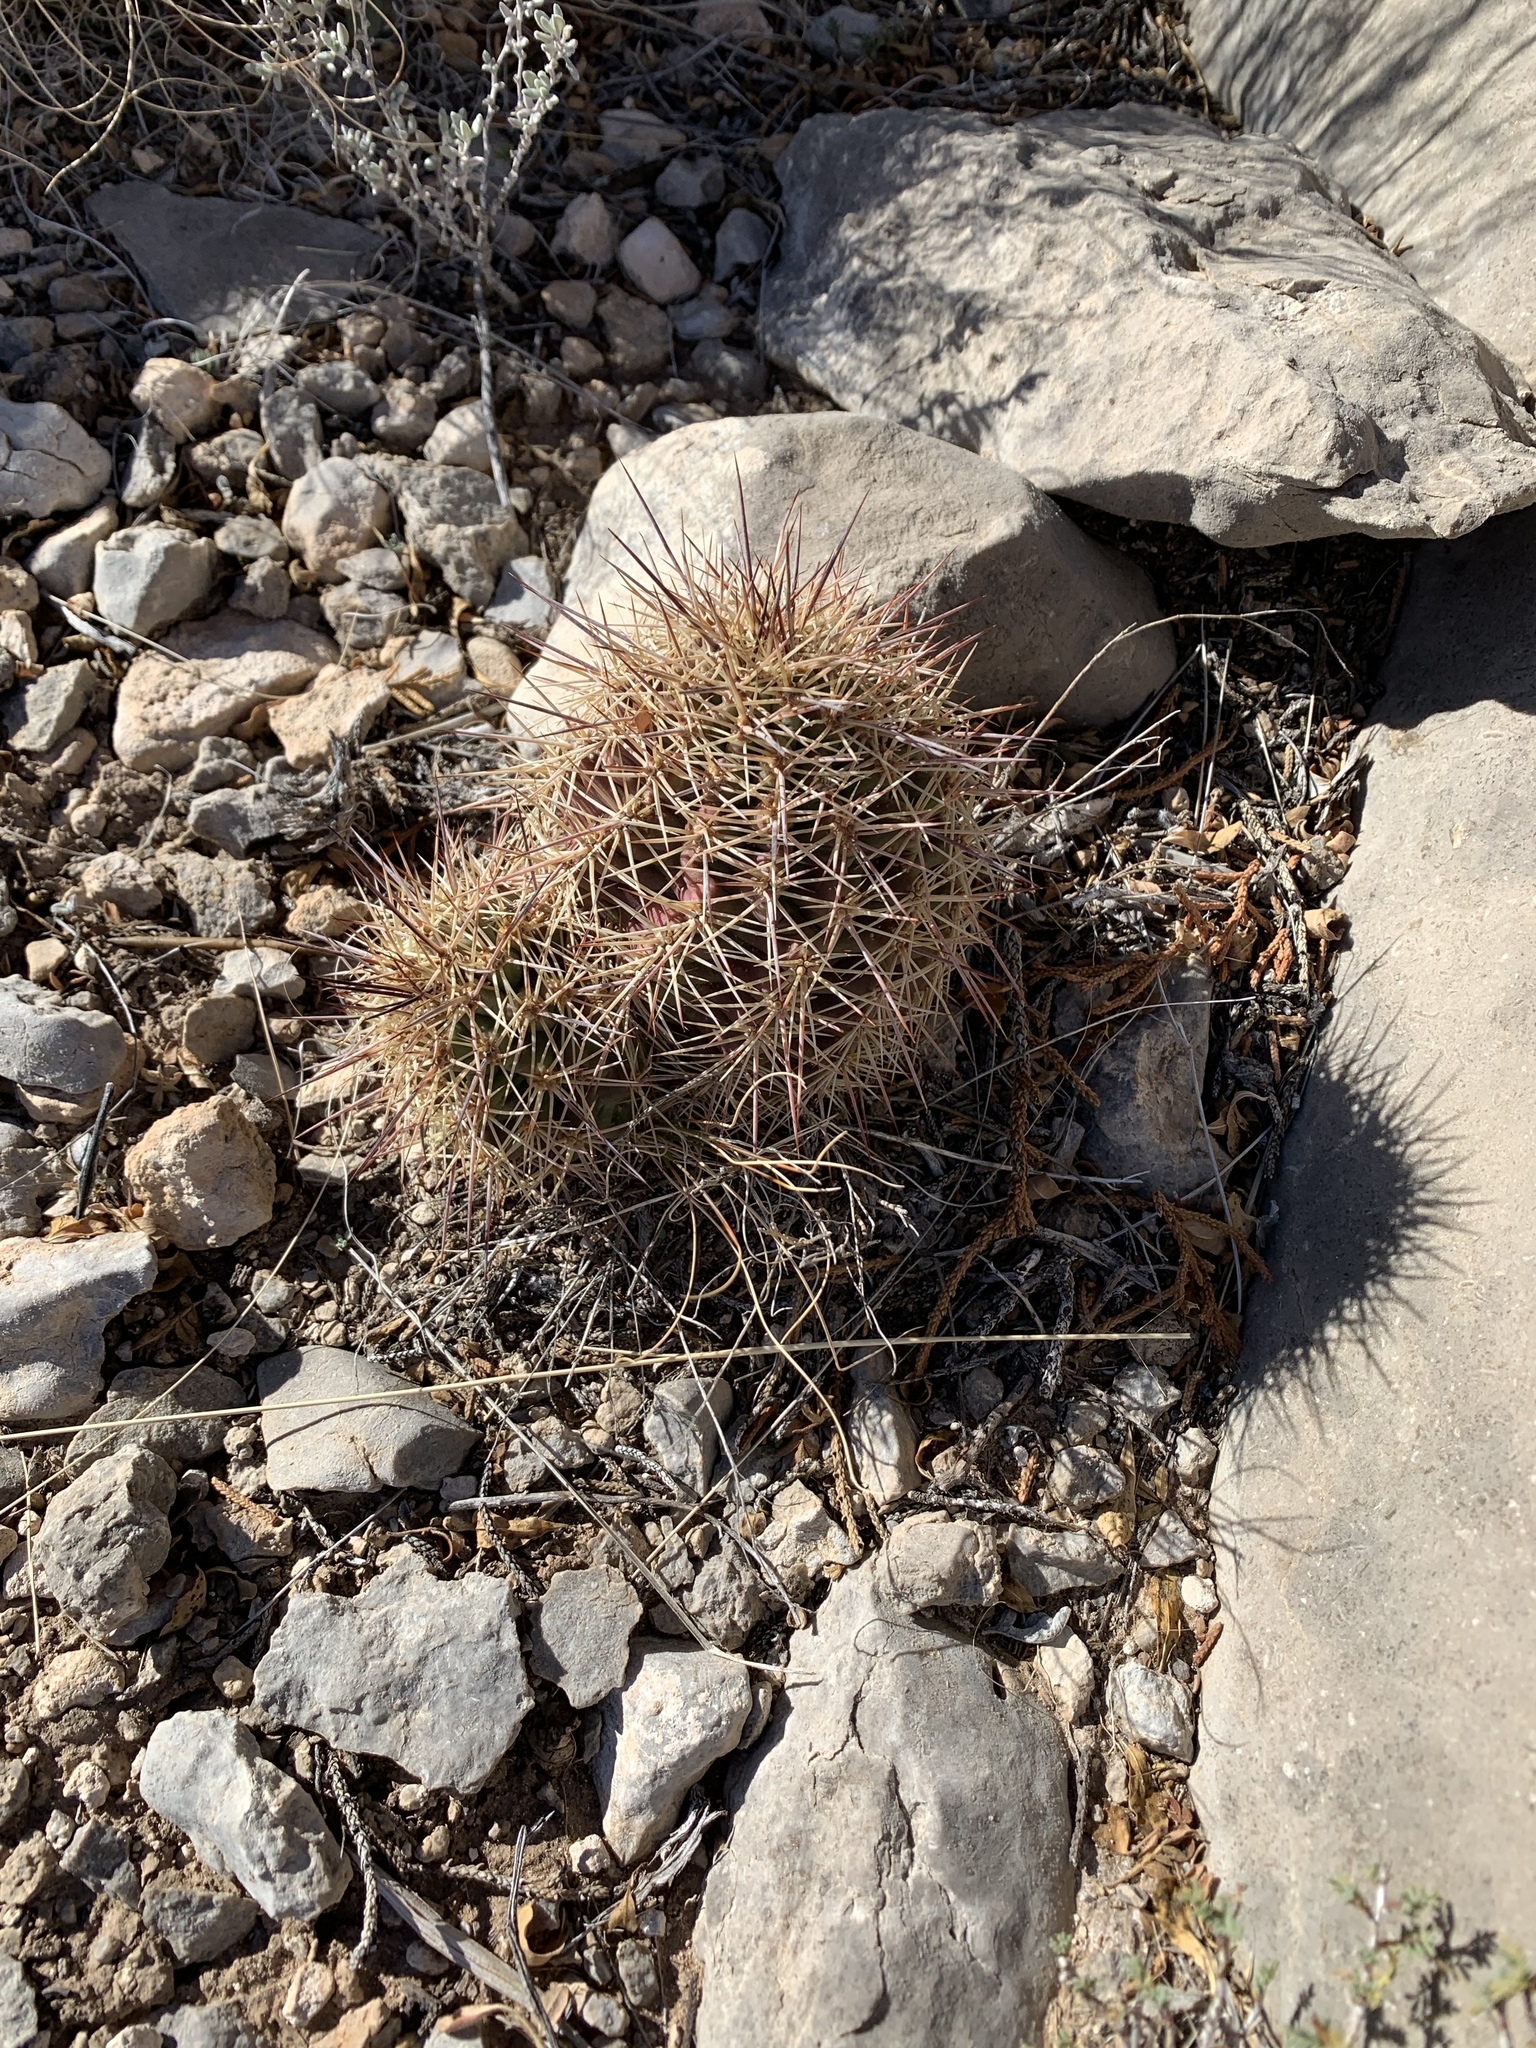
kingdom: Plantae
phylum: Tracheophyta
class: Magnoliopsida
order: Caryophyllales
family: Cactaceae
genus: Echinocereus
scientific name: Echinocereus coccineus
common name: Scarlet hedgehog cactus
